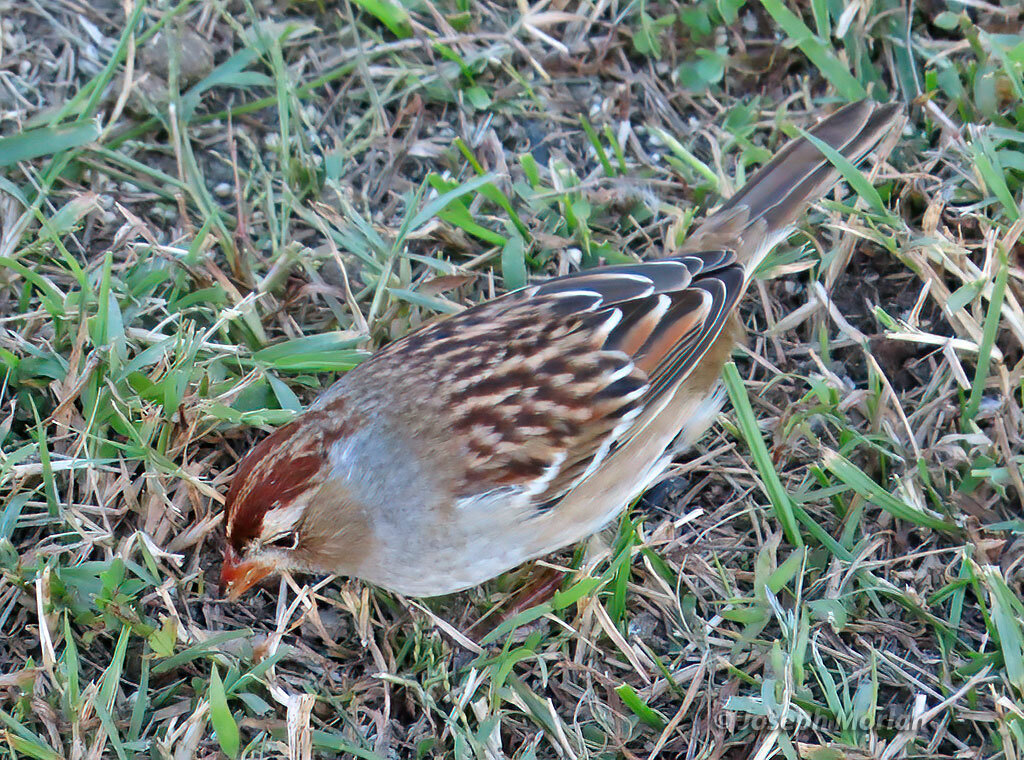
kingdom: Animalia
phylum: Chordata
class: Aves
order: Passeriformes
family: Passerellidae
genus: Zonotrichia
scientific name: Zonotrichia leucophrys
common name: White-crowned sparrow
